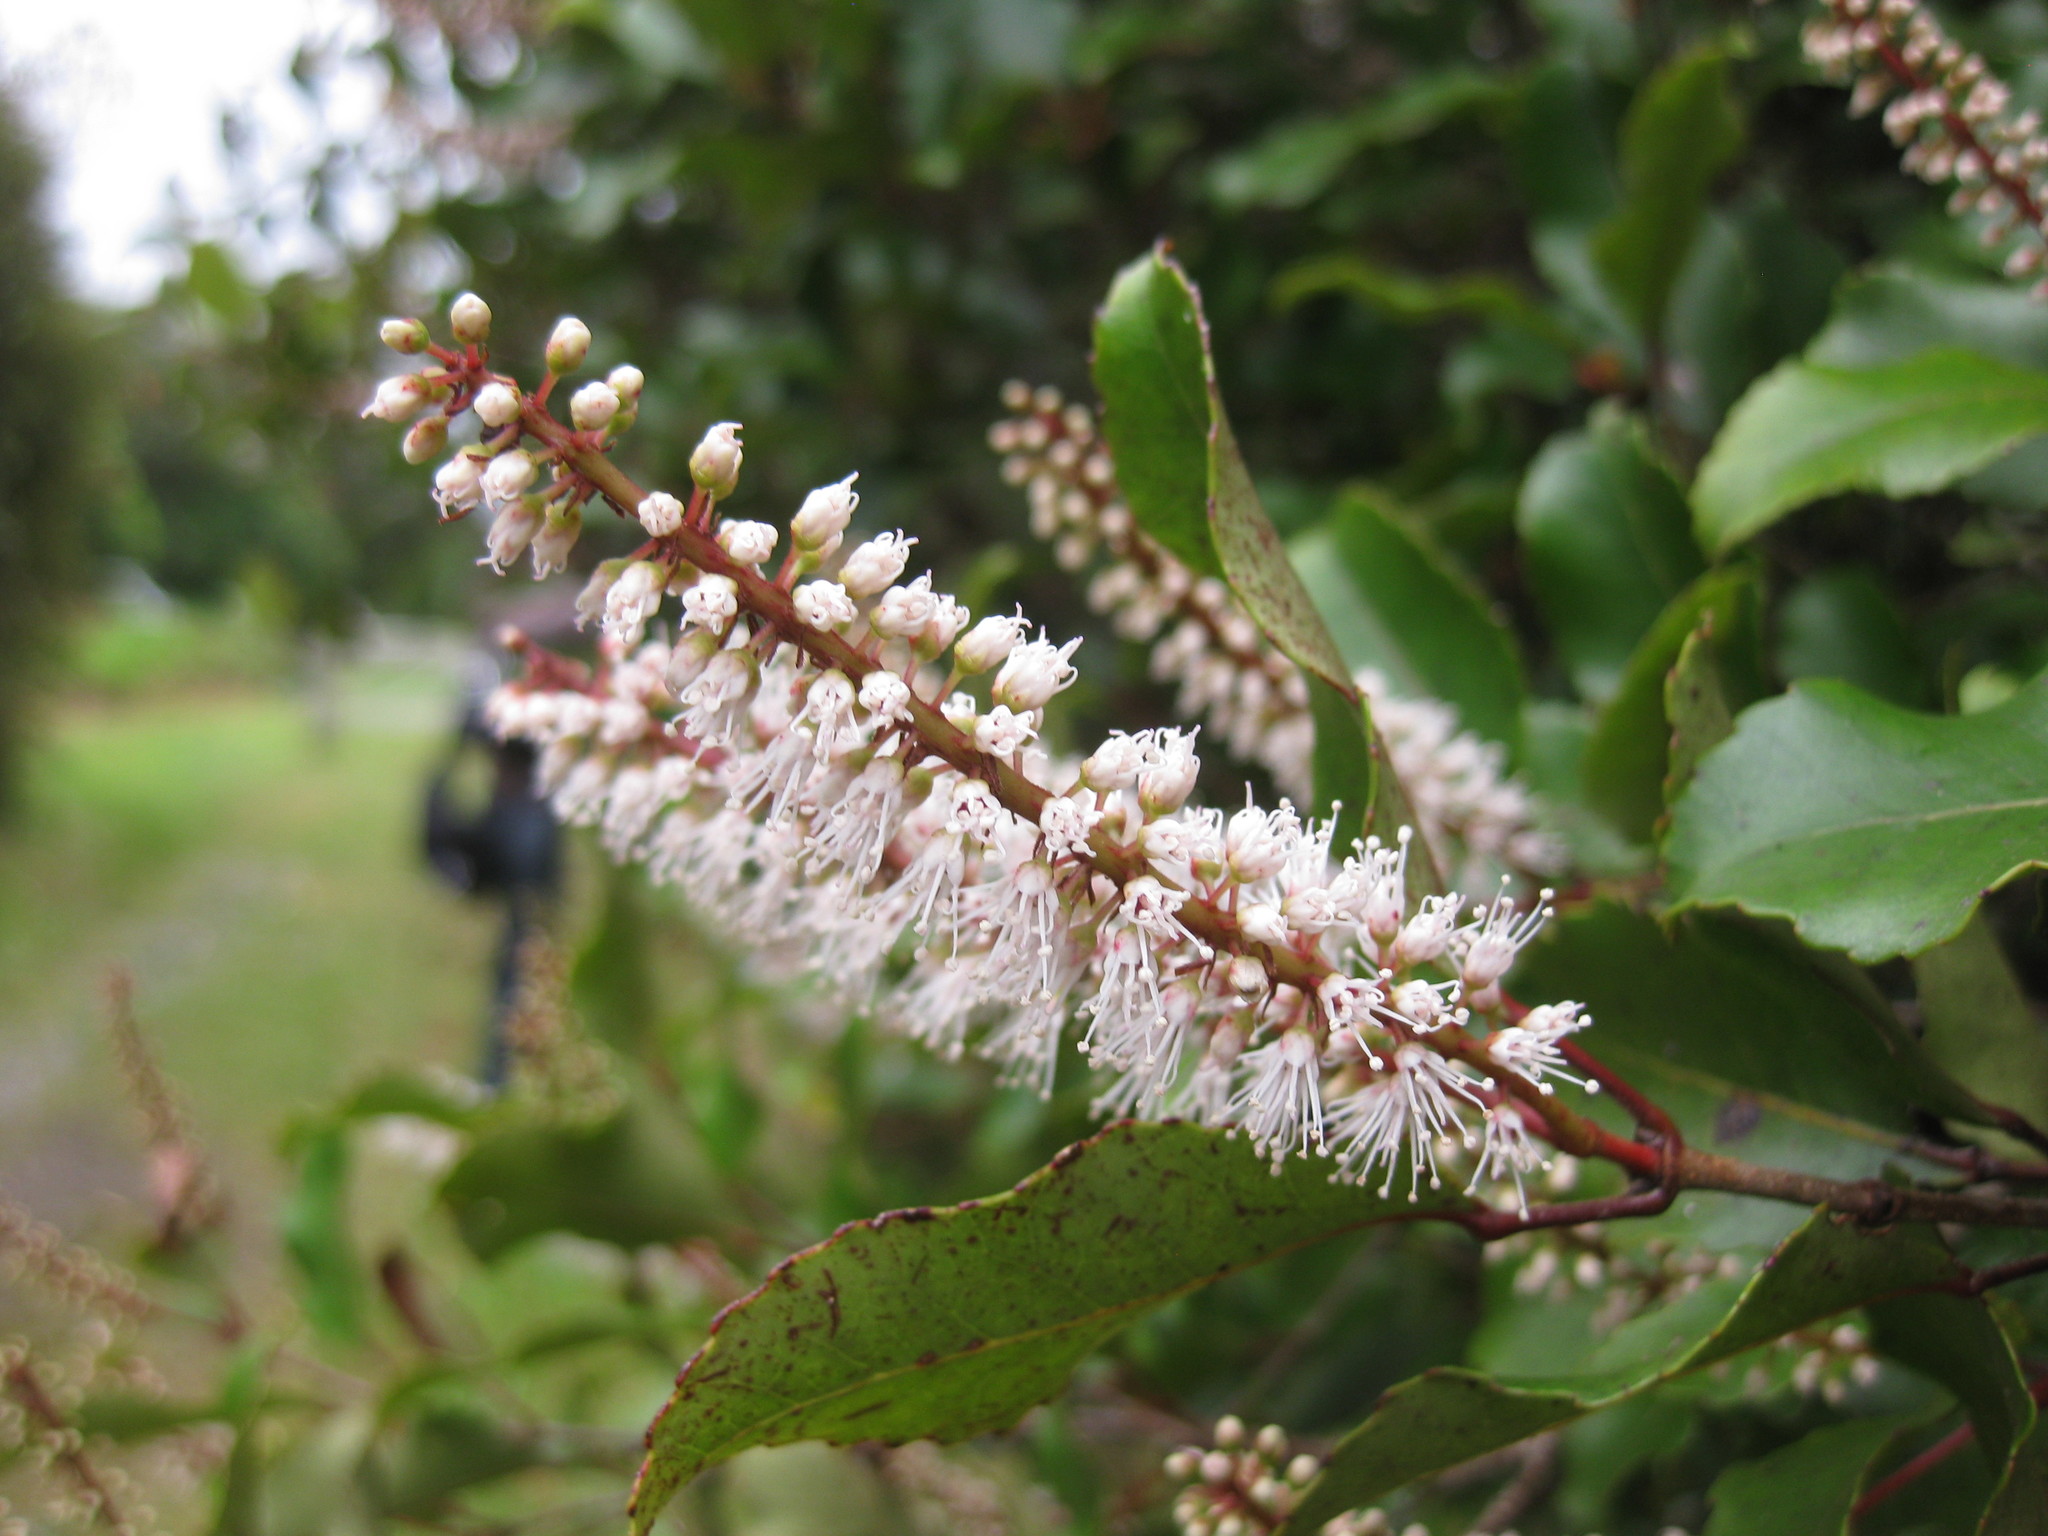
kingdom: Plantae
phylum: Tracheophyta
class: Magnoliopsida
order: Oxalidales
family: Cunoniaceae
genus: Pterophylla
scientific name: Pterophylla racemosa
